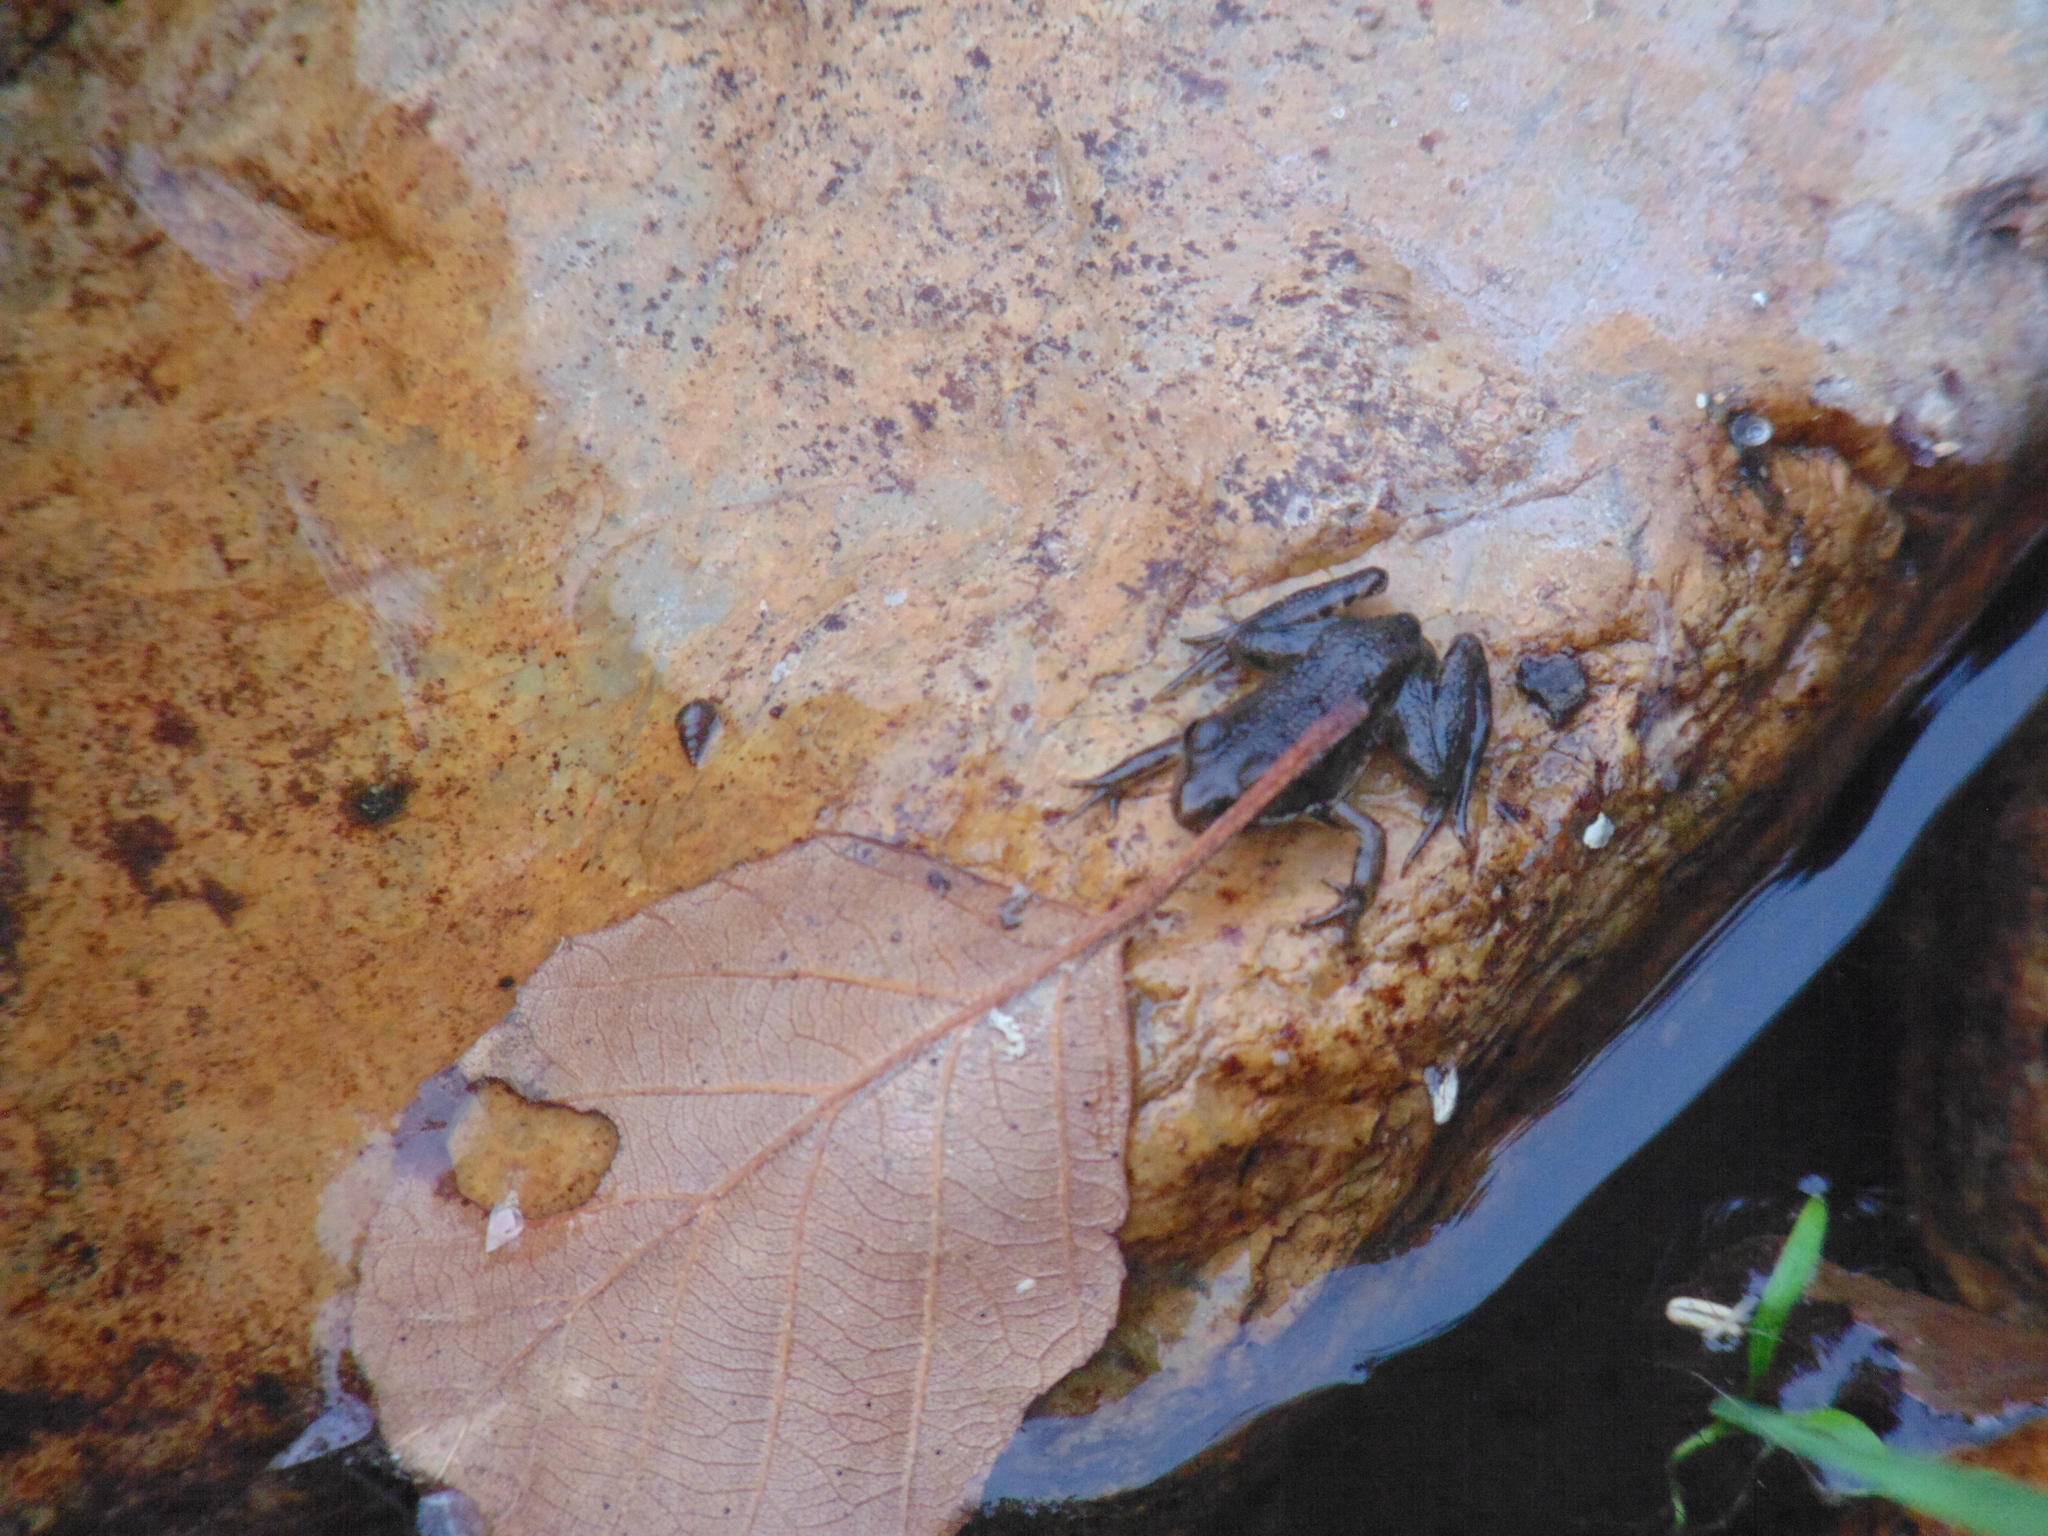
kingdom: Animalia
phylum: Chordata
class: Amphibia
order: Anura
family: Ranidae
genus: Pelophylax
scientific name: Pelophylax perezi
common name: Perez's frog
